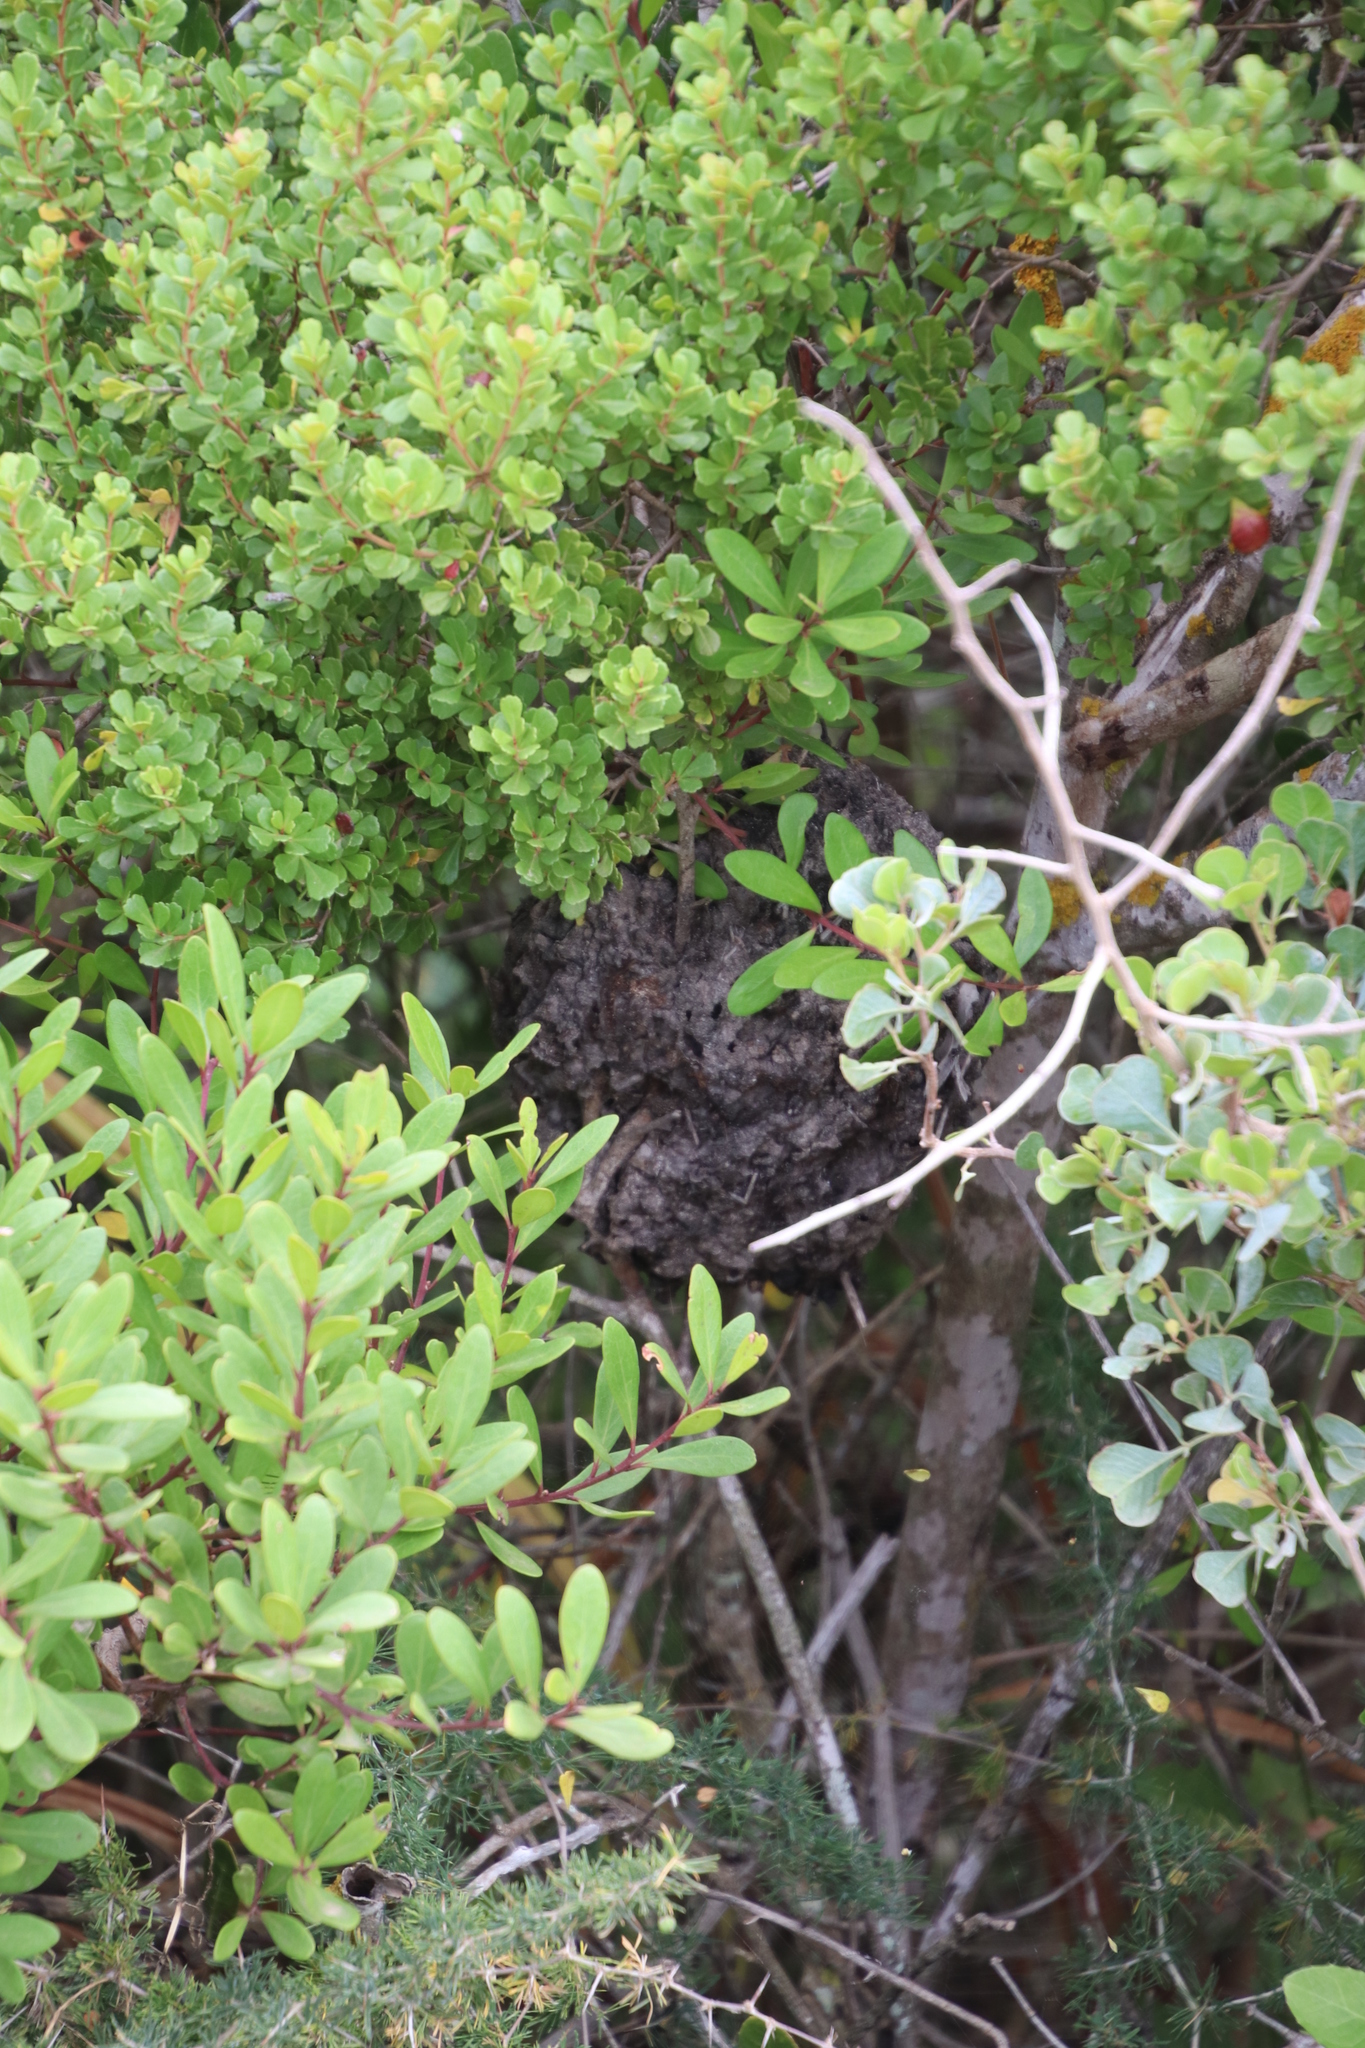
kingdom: Animalia
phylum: Arthropoda
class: Insecta
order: Hymenoptera
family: Formicidae
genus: Crematogaster
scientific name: Crematogaster peringueyi
